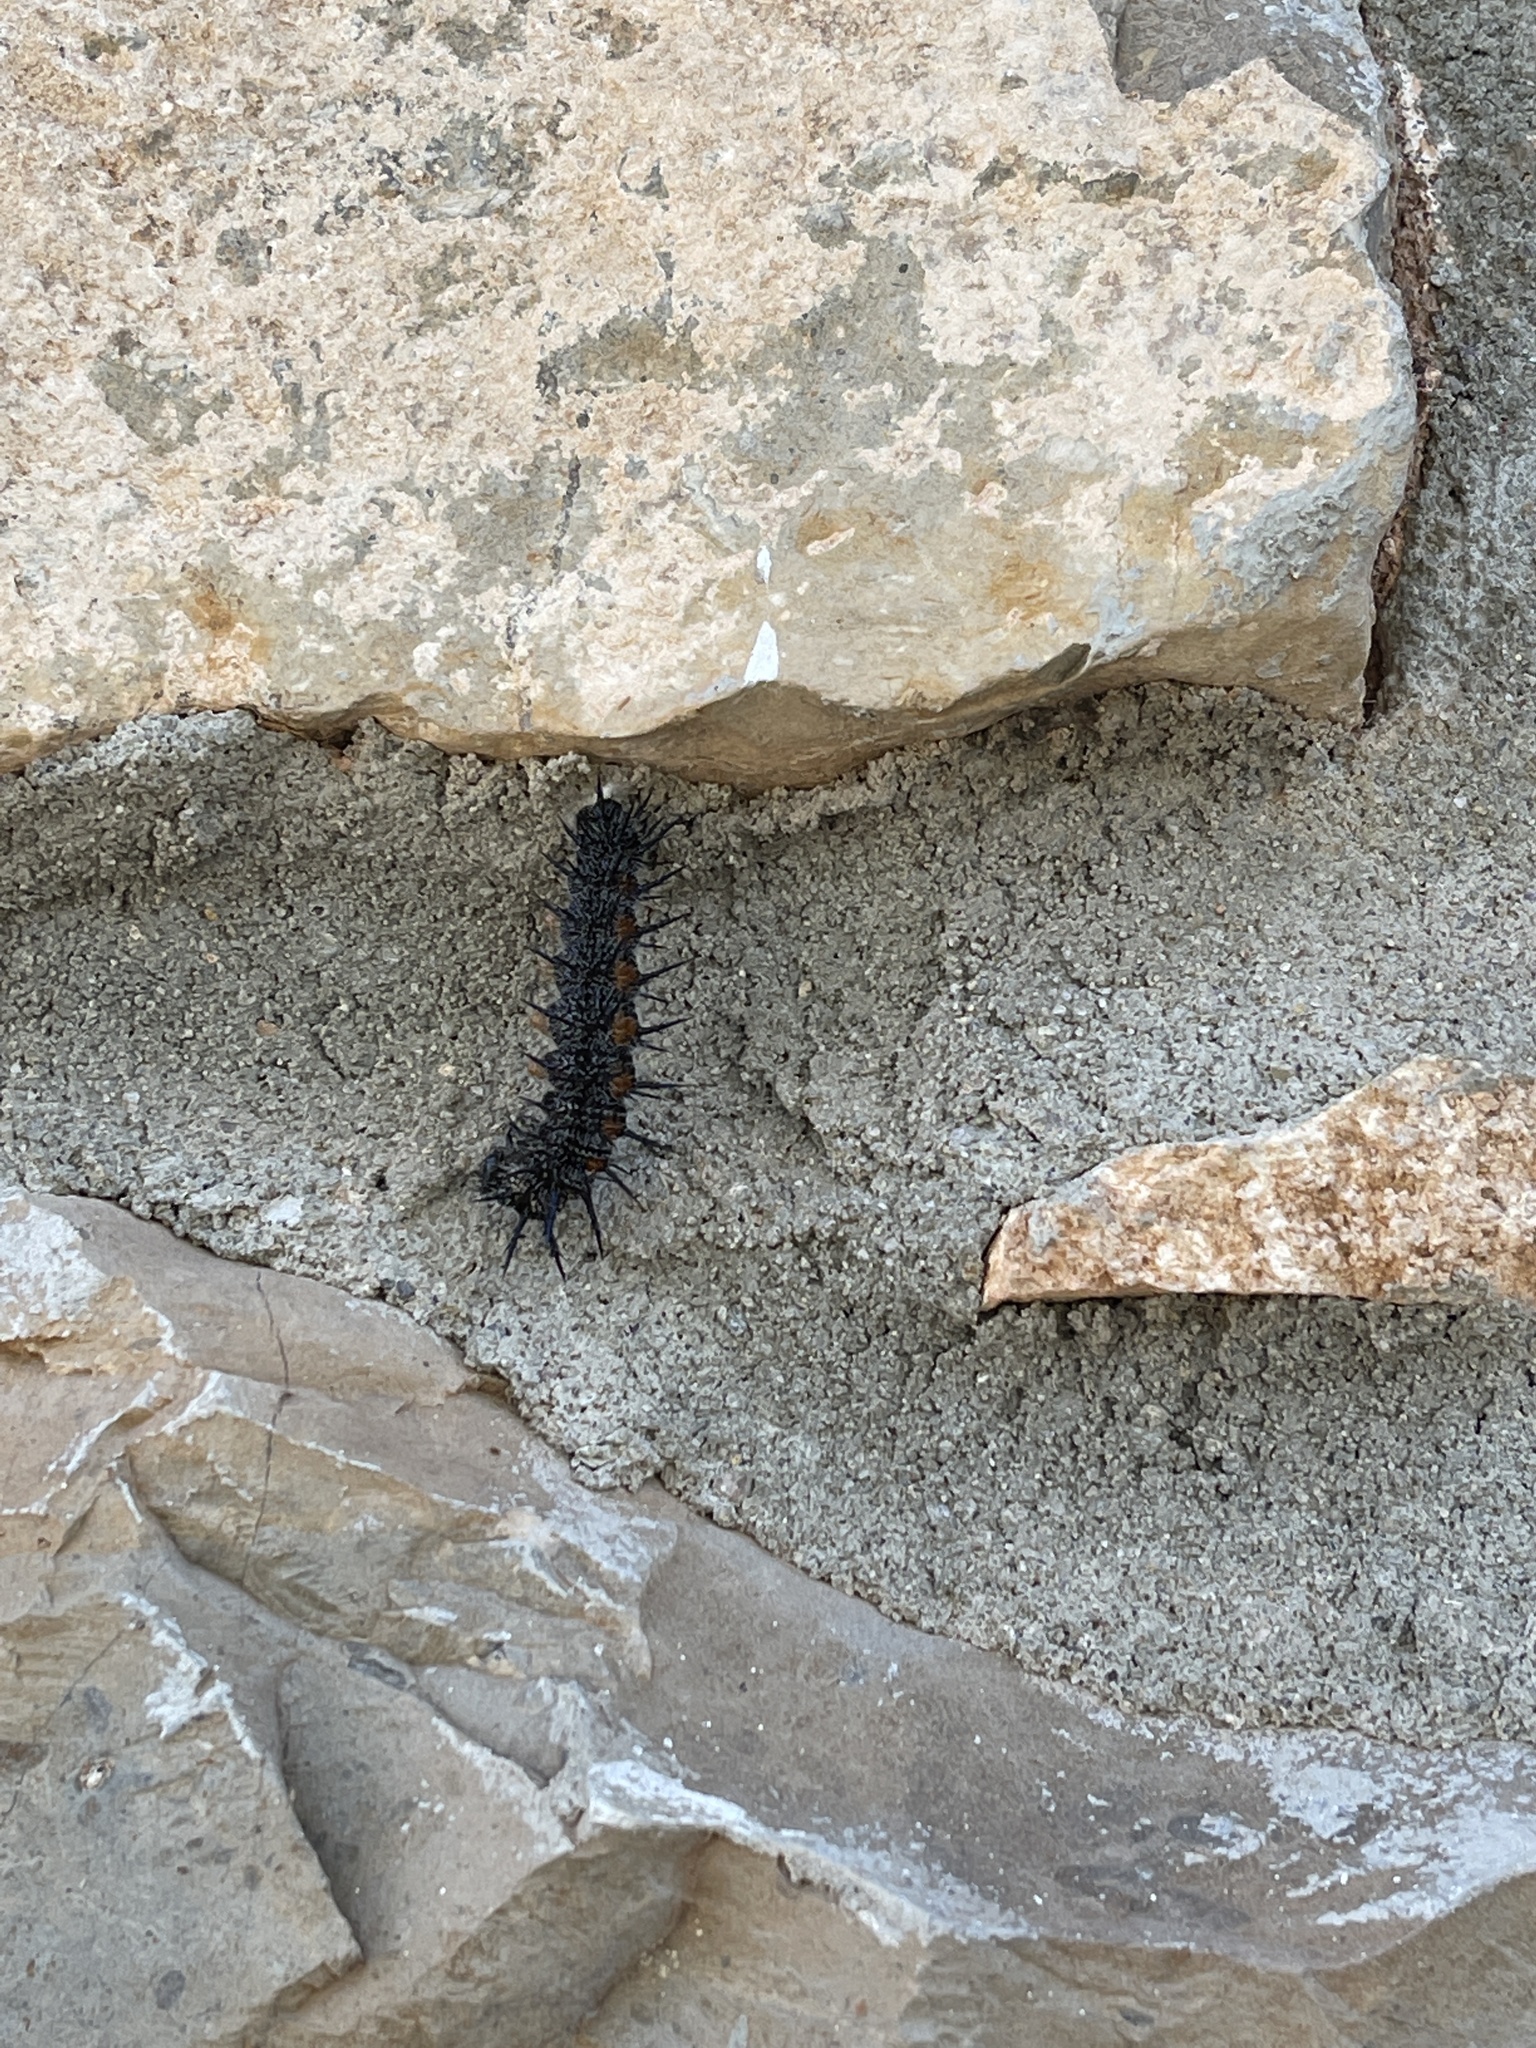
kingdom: Animalia
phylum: Arthropoda
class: Insecta
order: Lepidoptera
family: Nymphalidae
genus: Nymphalis
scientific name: Nymphalis antiopa
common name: Camberwell beauty
